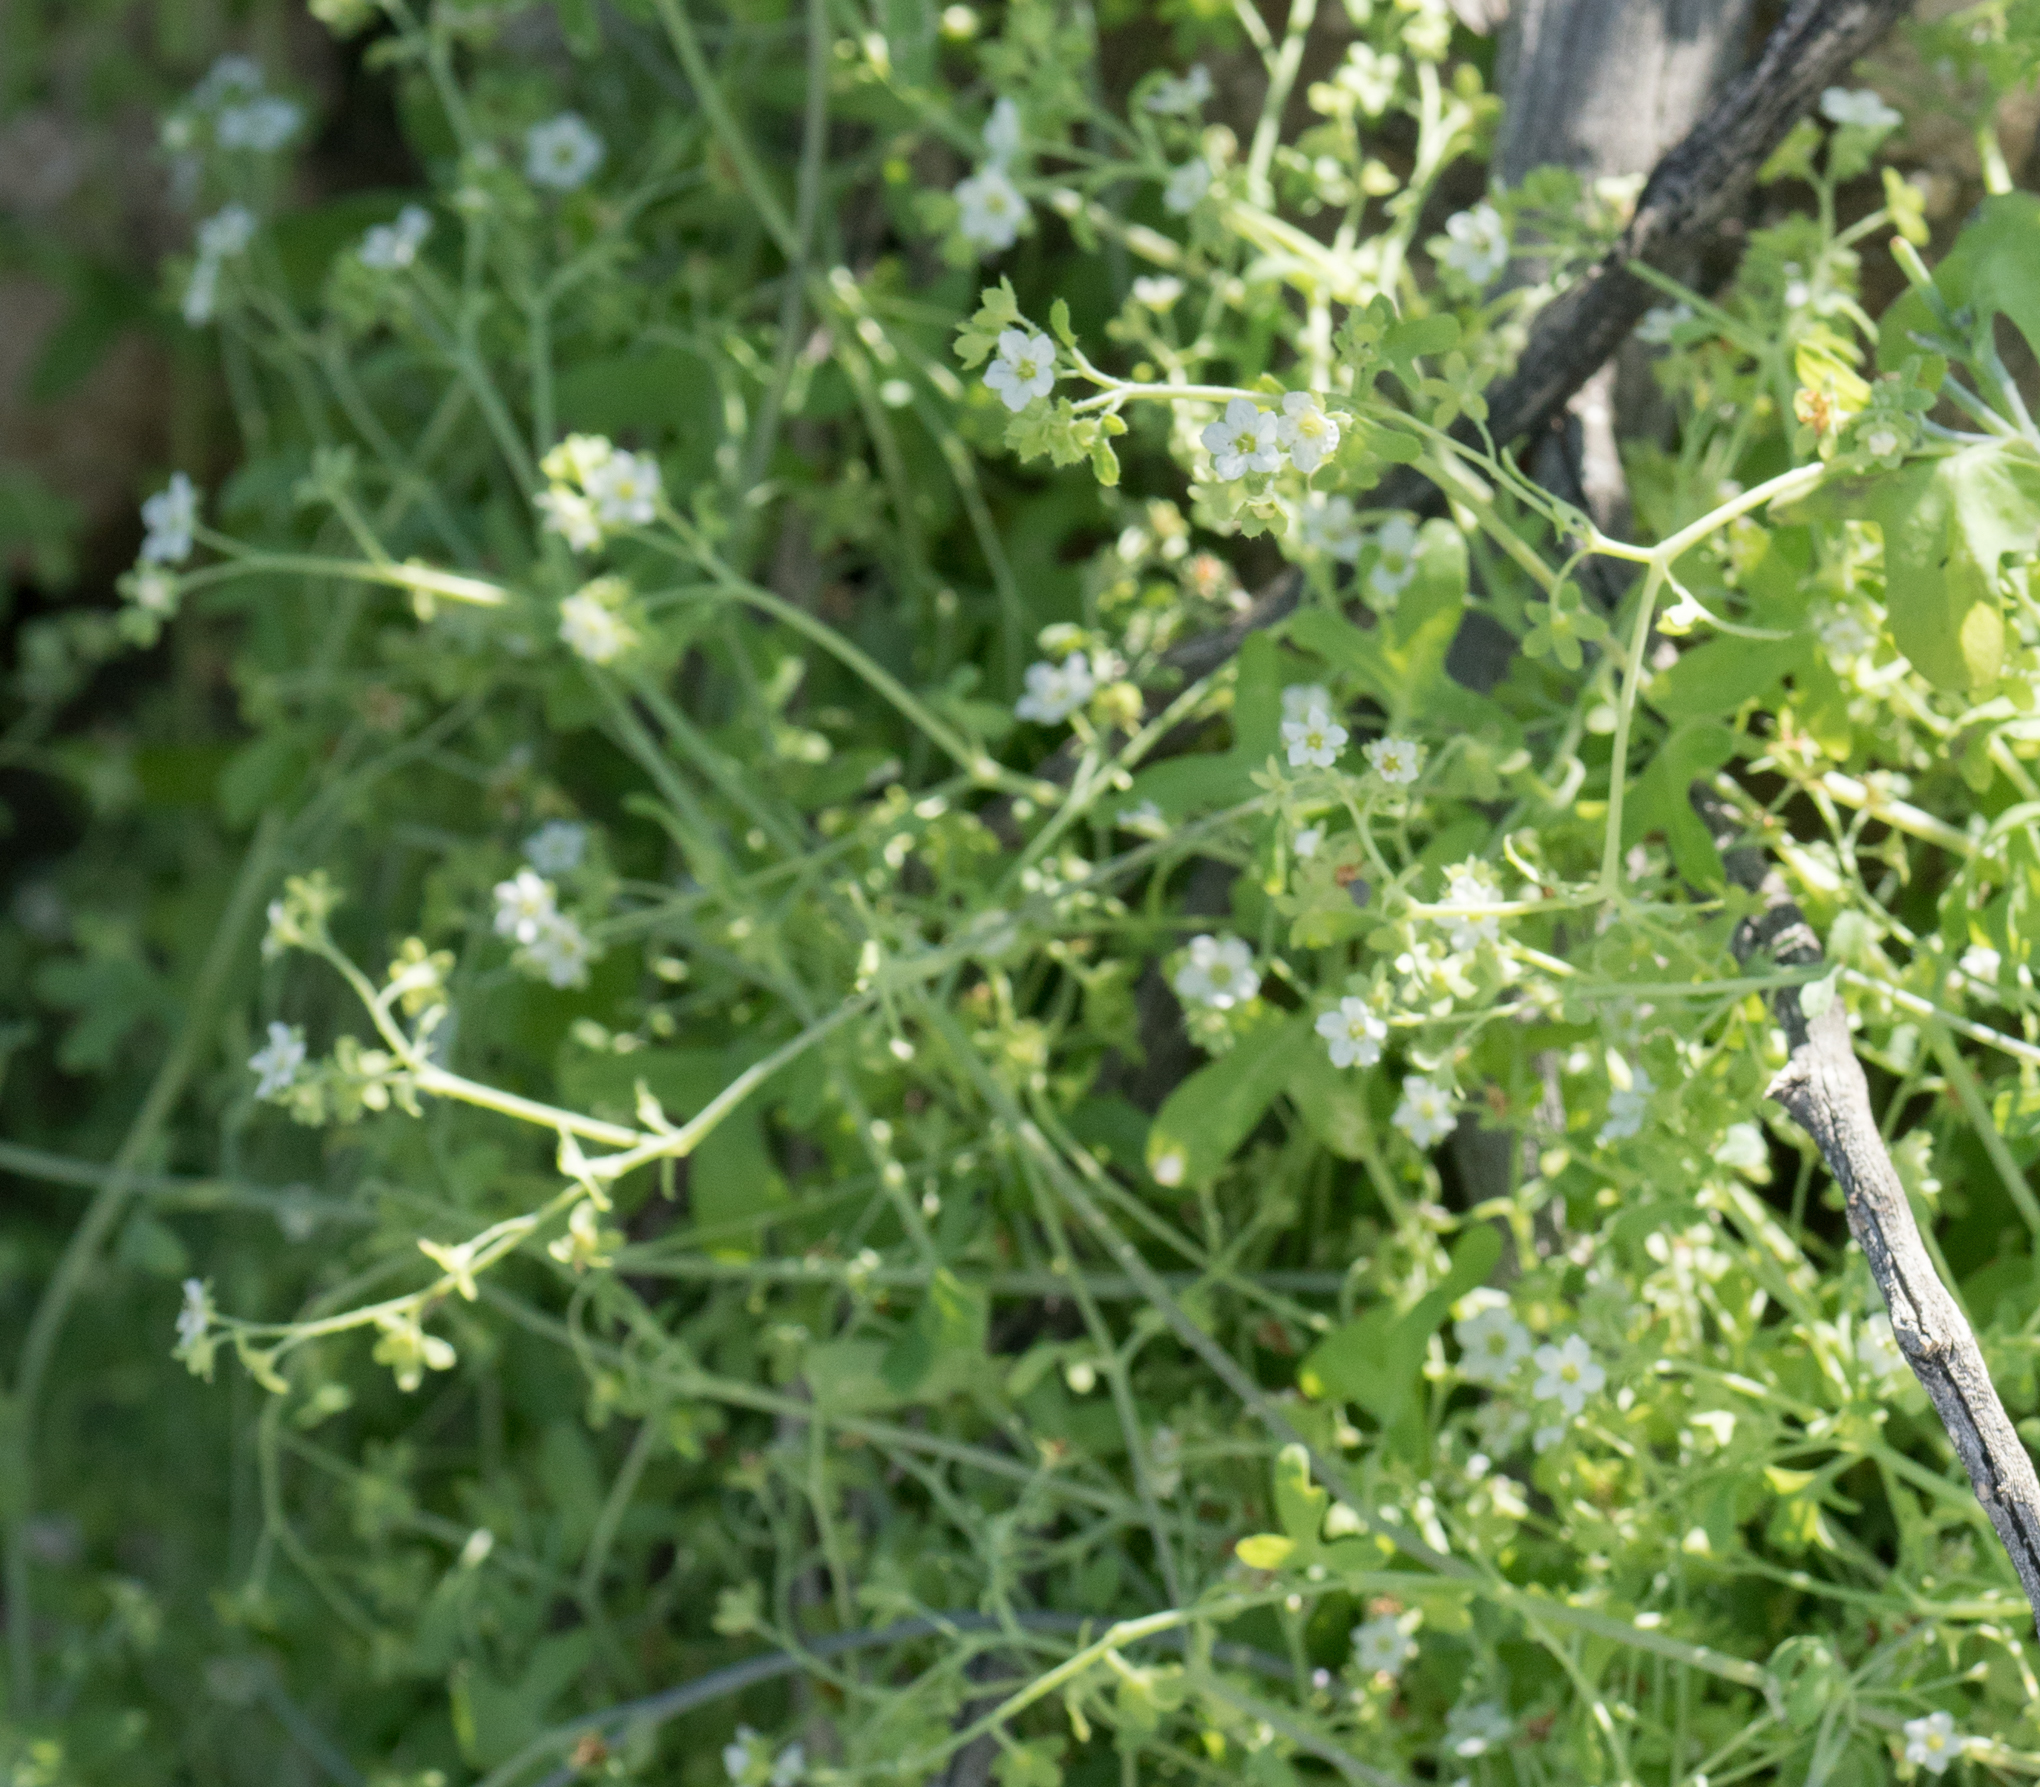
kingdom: Plantae
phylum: Tracheophyta
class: Magnoliopsida
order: Boraginales
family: Hydrophyllaceae
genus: Pholistoma
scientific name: Pholistoma membranaceum
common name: White fiesta-flower
